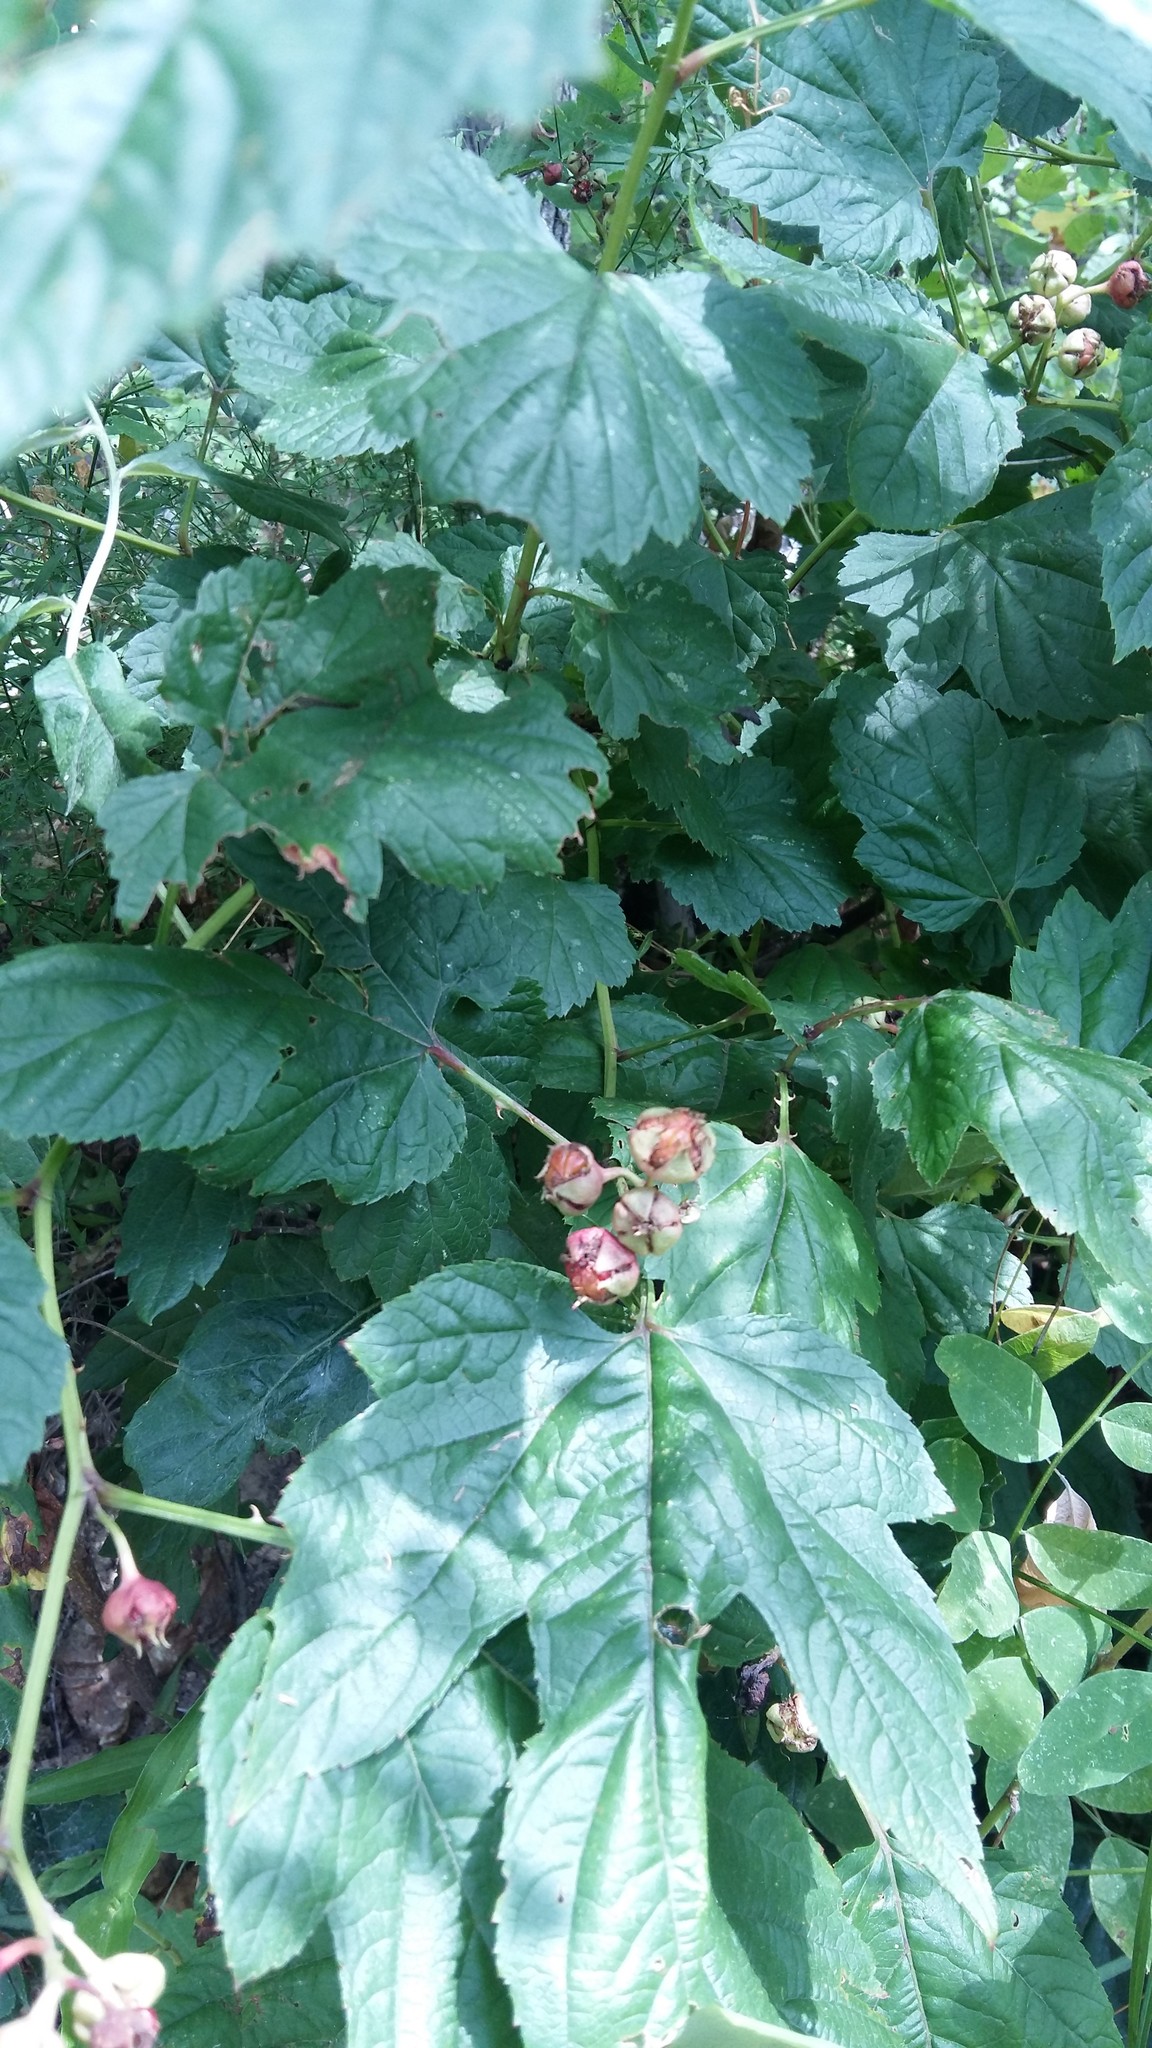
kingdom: Plantae
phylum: Tracheophyta
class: Magnoliopsida
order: Rosales
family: Rosaceae
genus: Rubus
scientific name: Rubus crataegifolius
